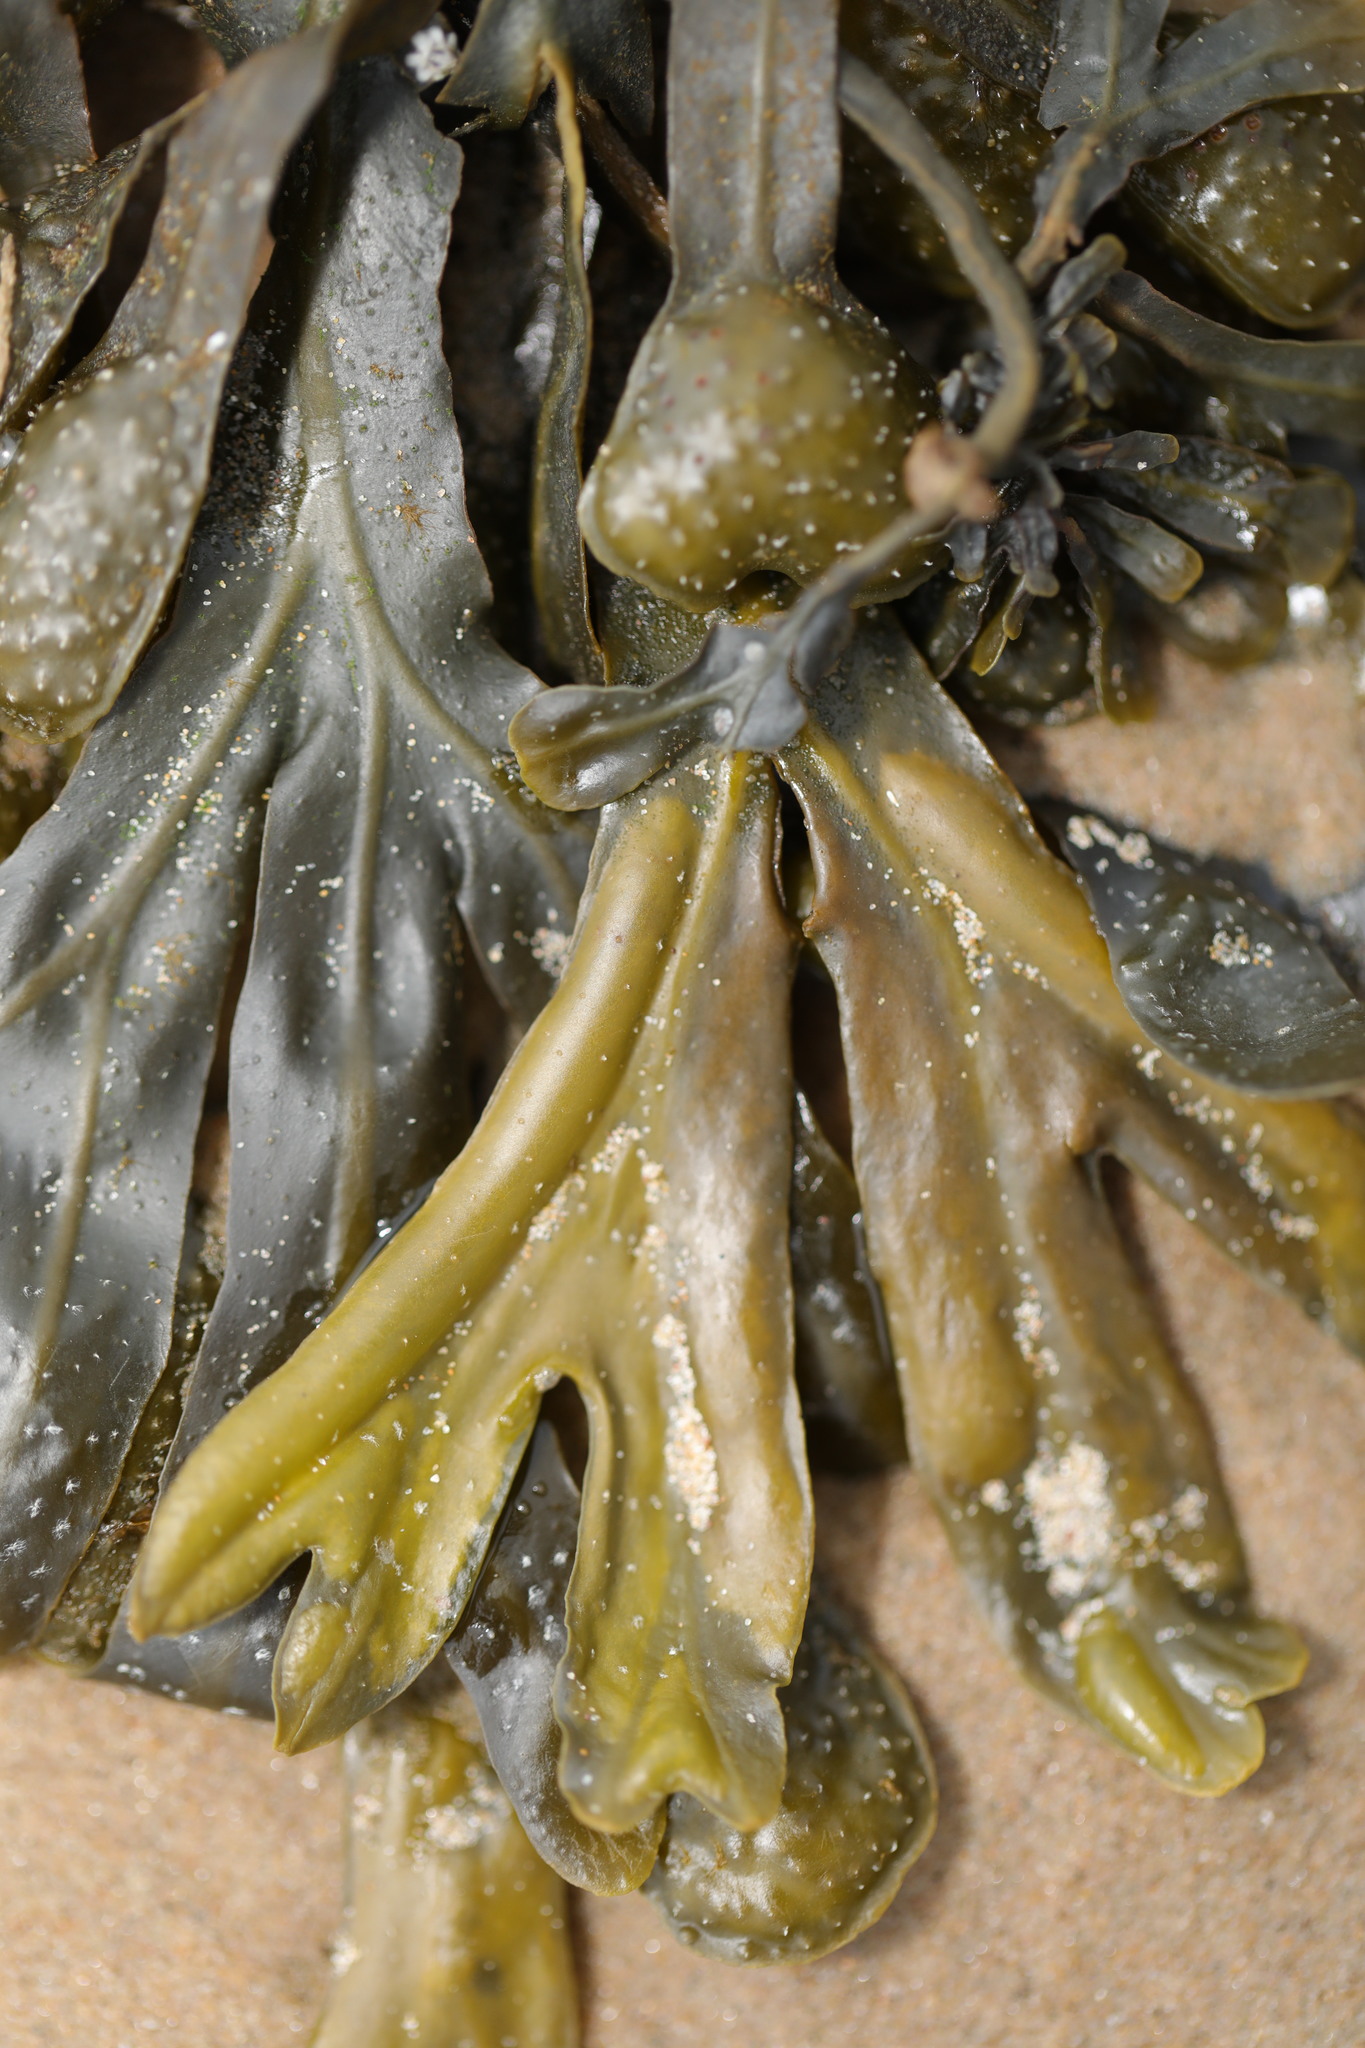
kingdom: Chromista
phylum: Ochrophyta
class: Phaeophyceae
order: Fucales
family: Fucaceae
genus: Fucus
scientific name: Fucus spiralis
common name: Spiral wrack
